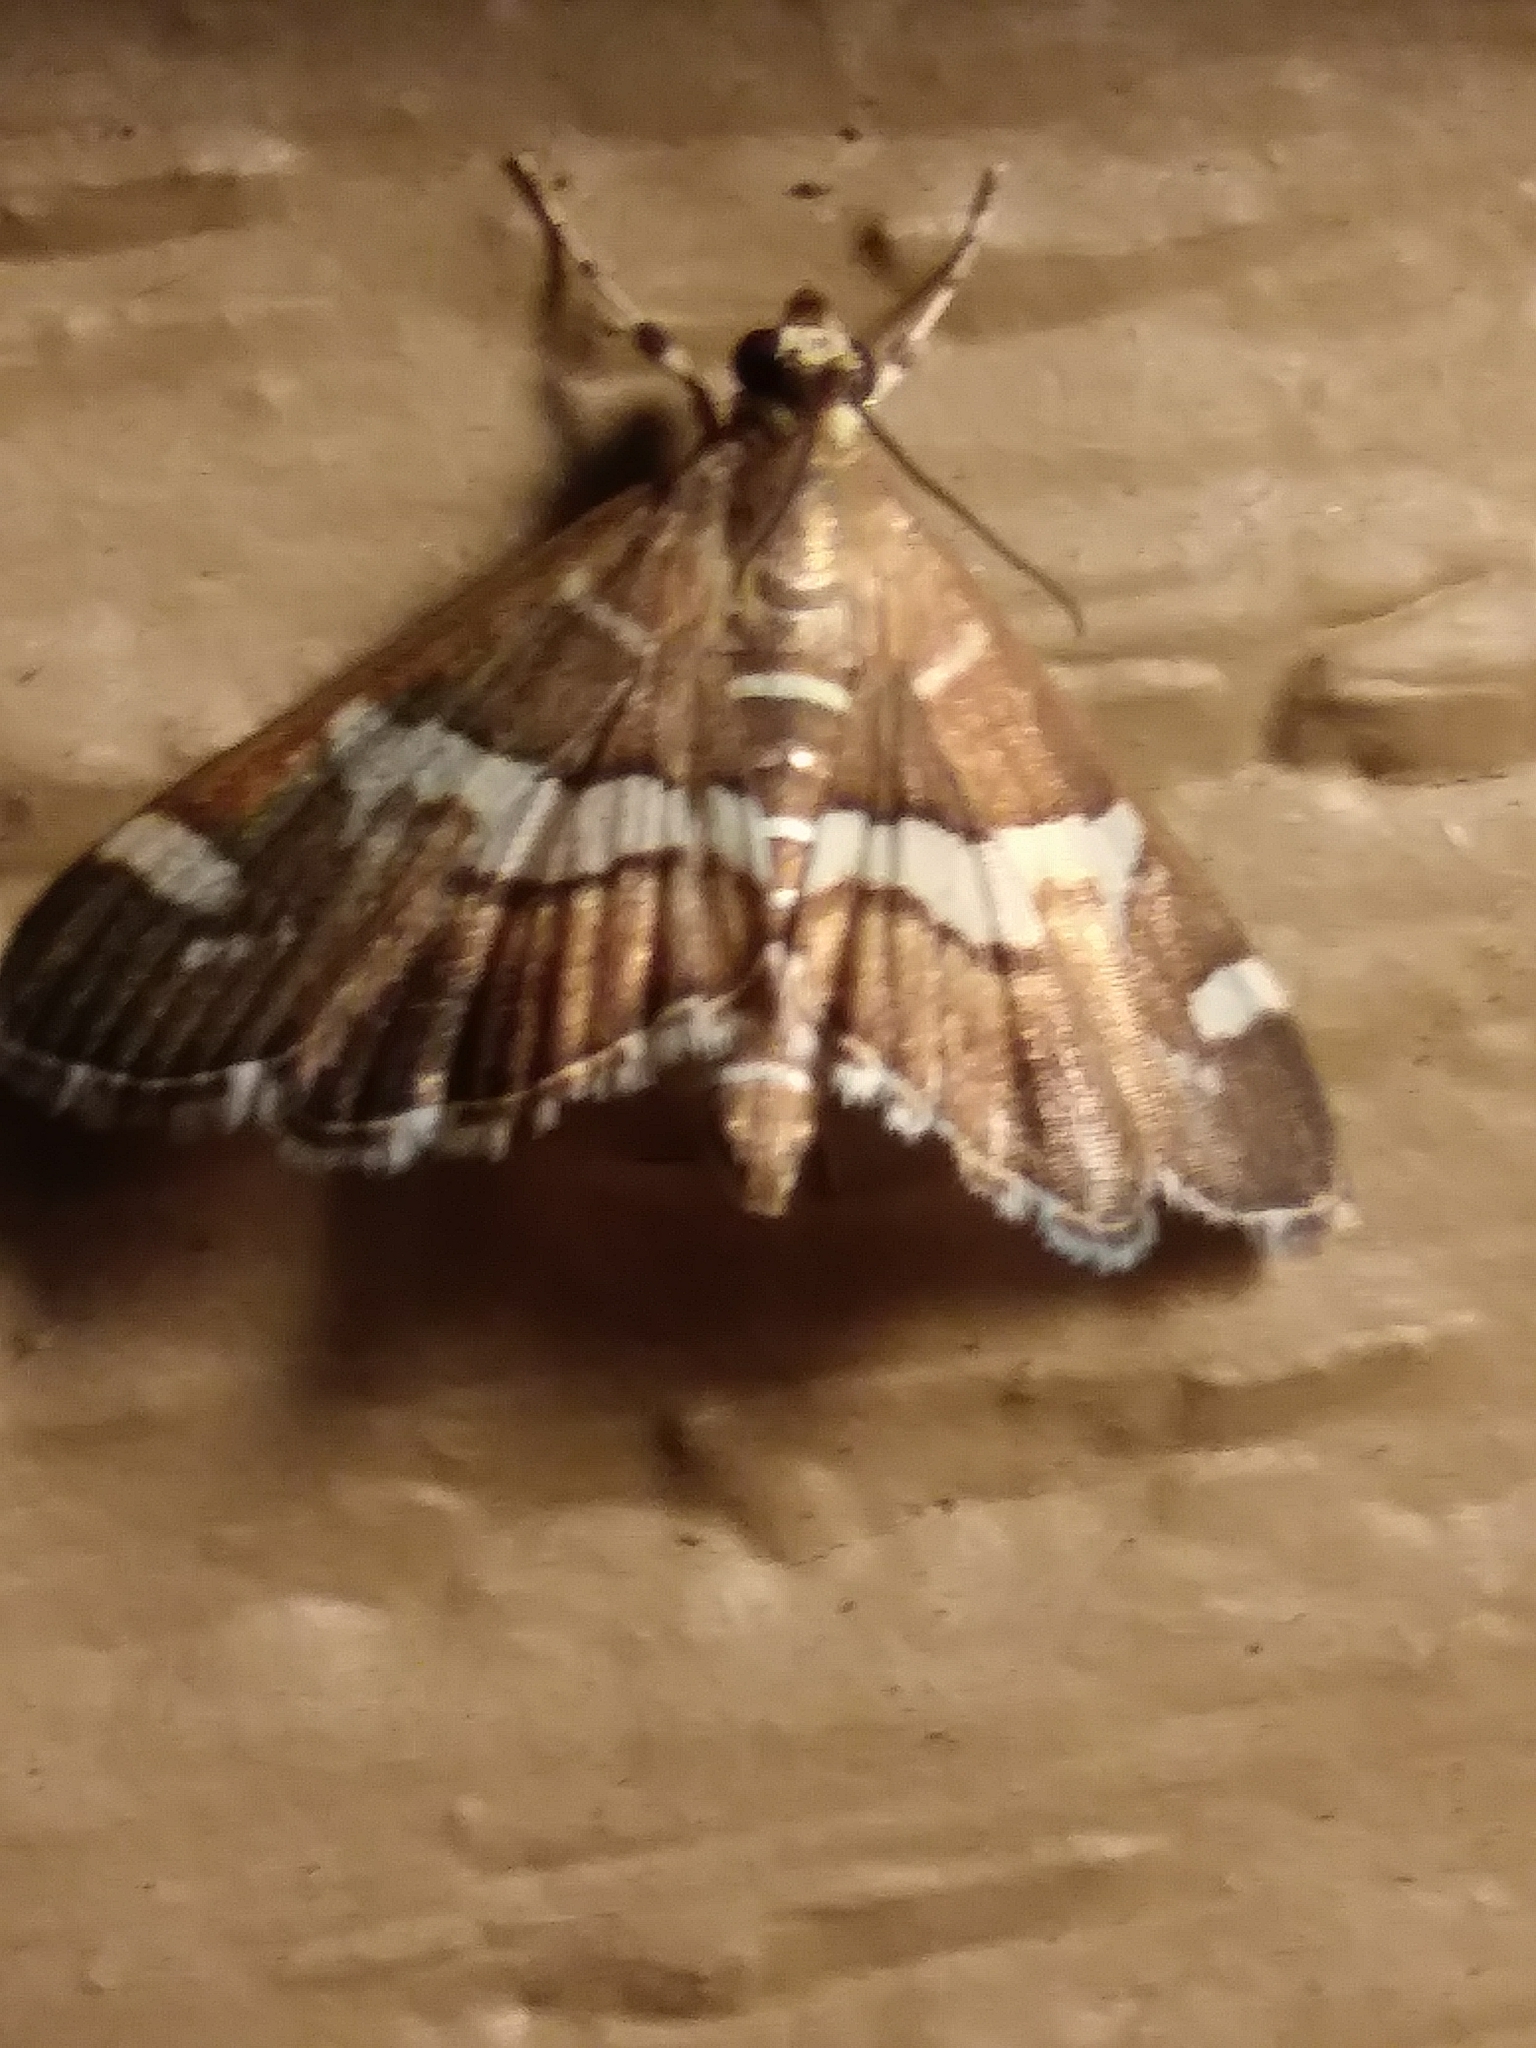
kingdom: Animalia
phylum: Arthropoda
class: Insecta
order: Lepidoptera
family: Crambidae
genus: Spoladea
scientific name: Spoladea recurvalis
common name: Beet webworm moth
